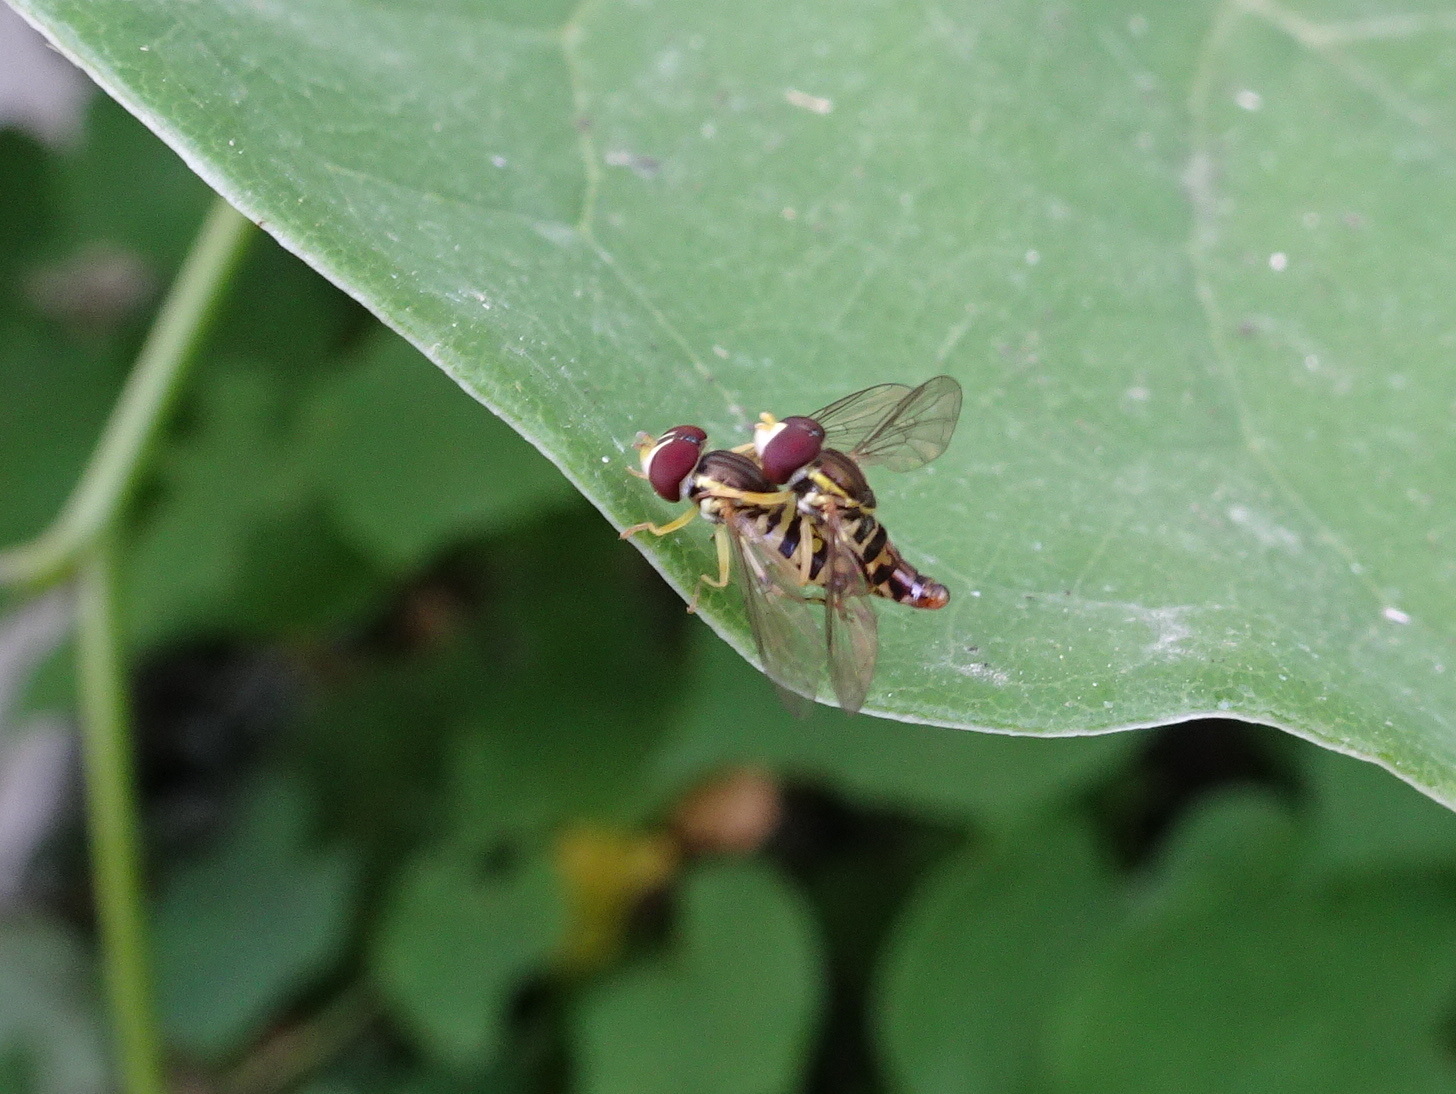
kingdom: Animalia
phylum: Arthropoda
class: Insecta
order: Diptera
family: Syrphidae
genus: Toxomerus
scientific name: Toxomerus geminatus
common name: Eastern calligrapher
